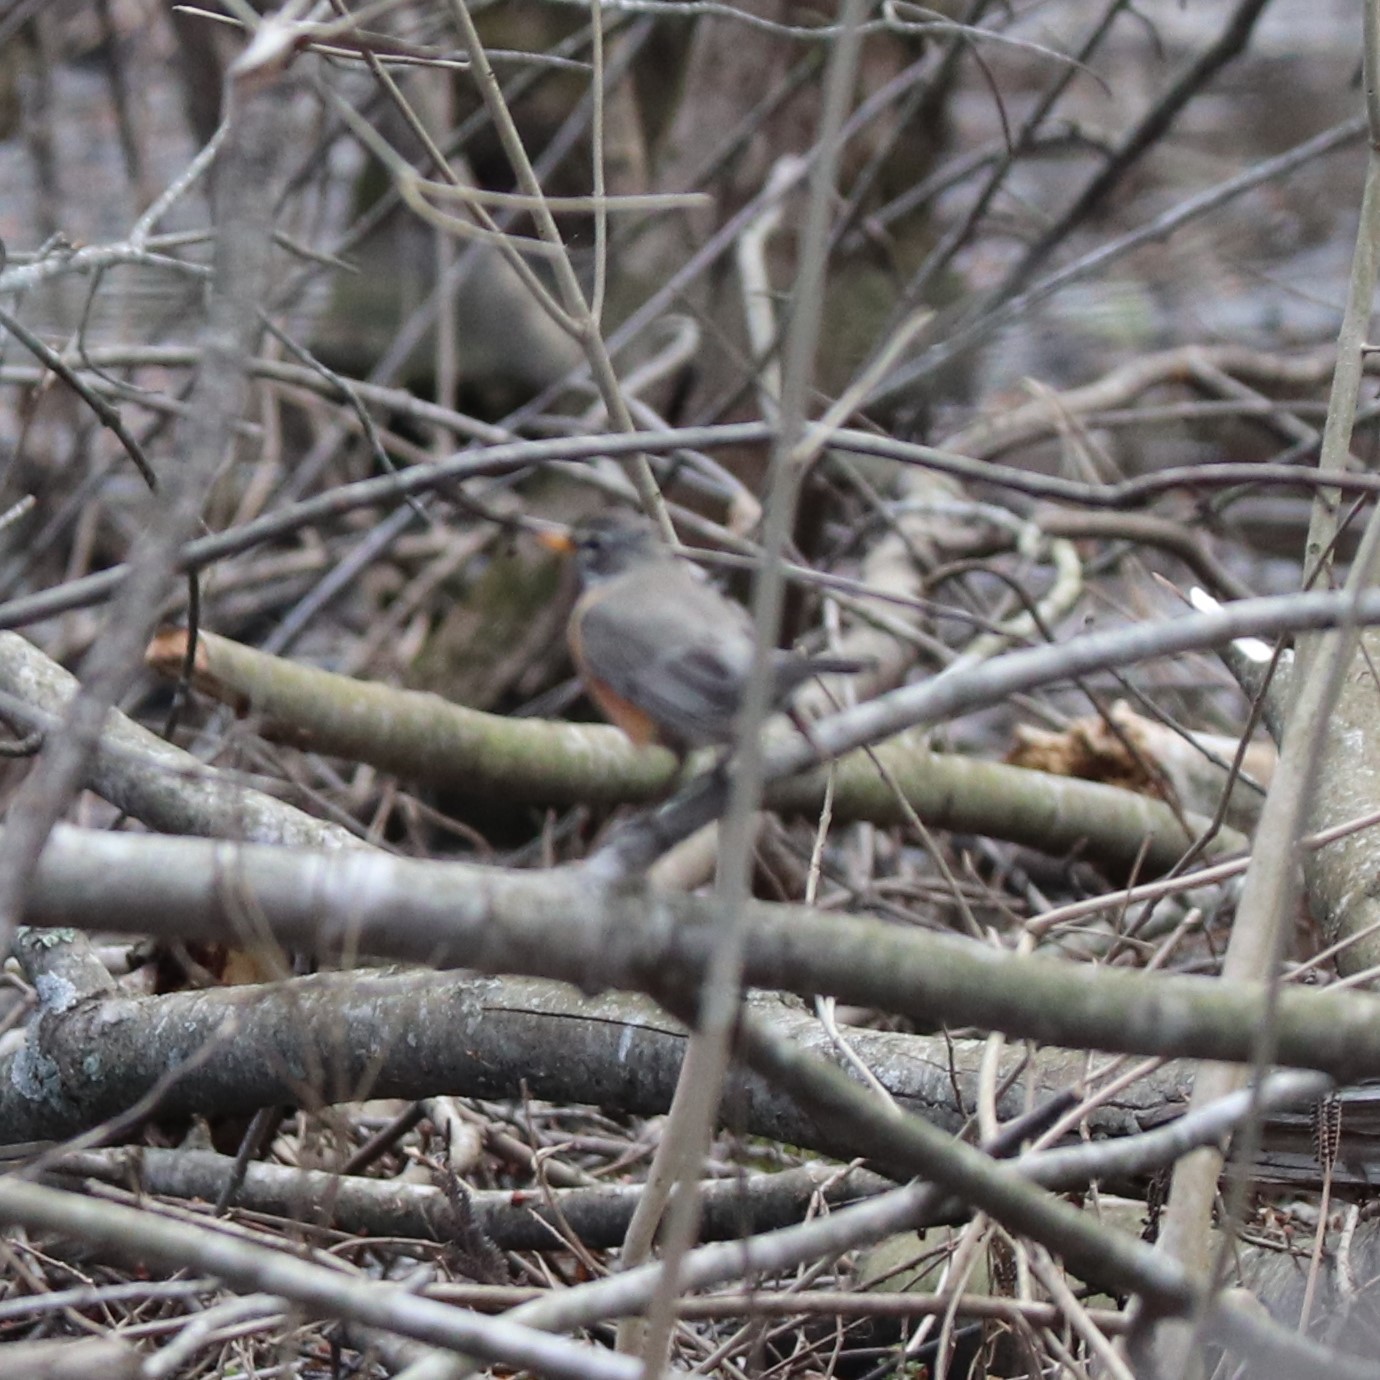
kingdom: Animalia
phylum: Chordata
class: Aves
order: Passeriformes
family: Turdidae
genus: Turdus
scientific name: Turdus migratorius
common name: American robin
